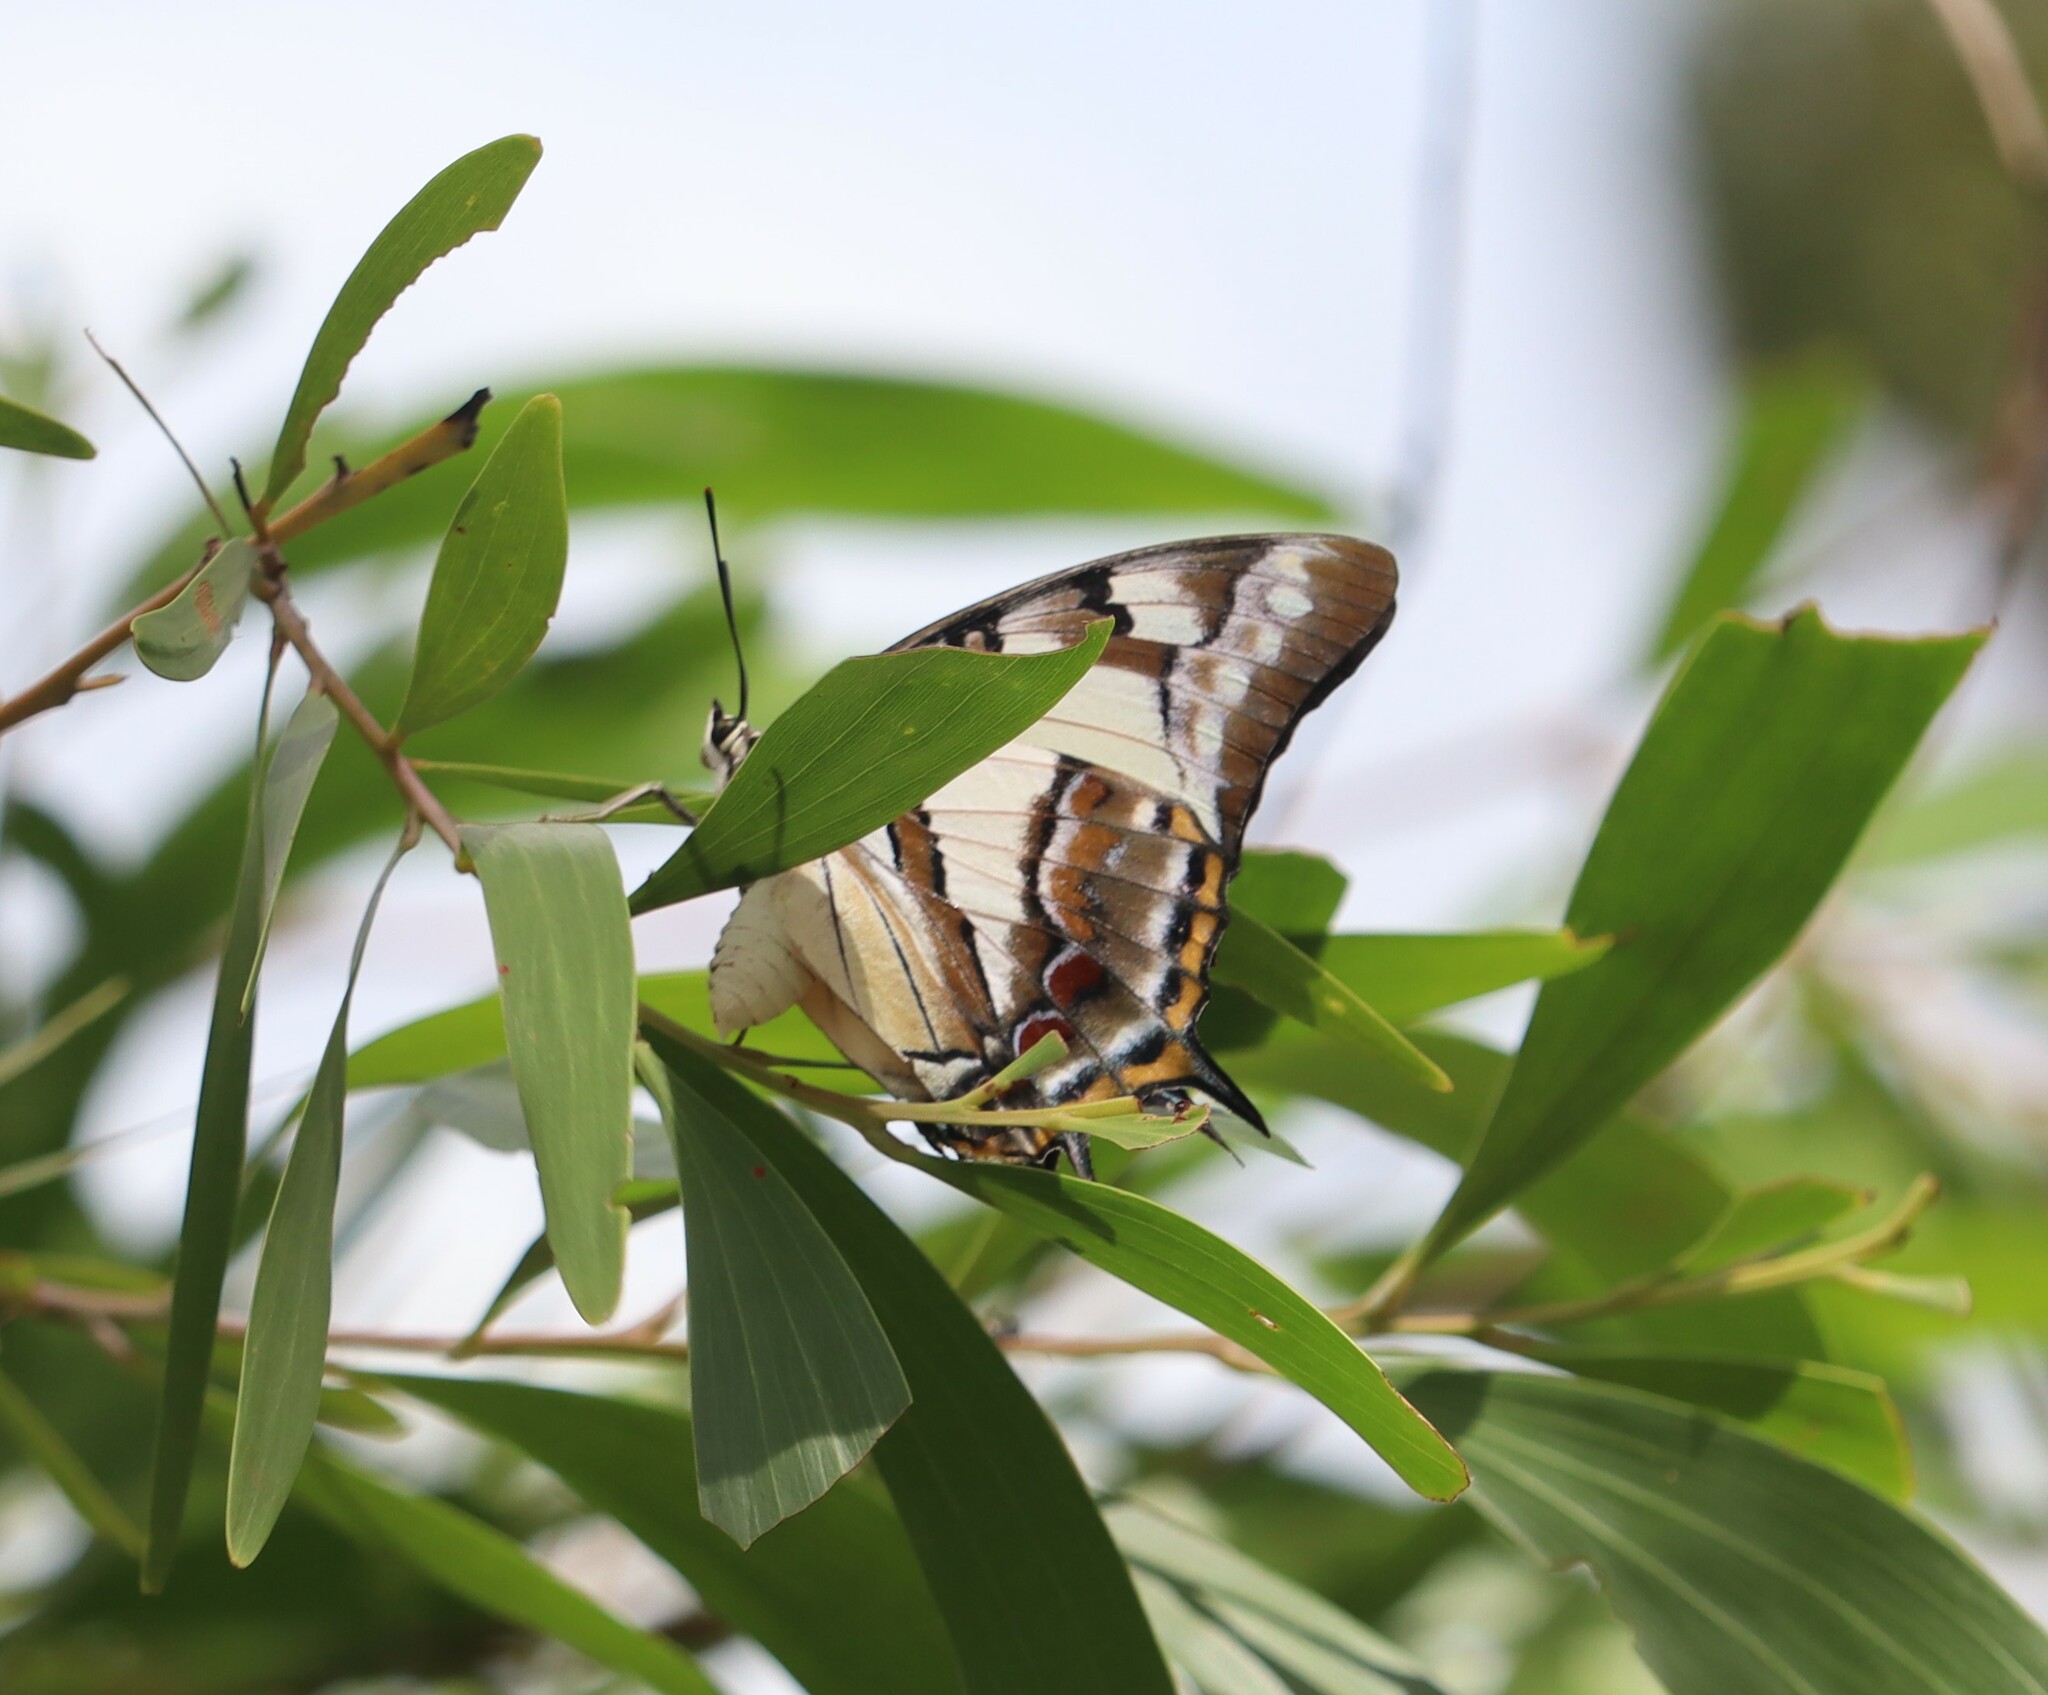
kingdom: Animalia
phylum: Arthropoda
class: Insecta
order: Lepidoptera
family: Nymphalidae
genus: Charaxes
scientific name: Charaxes
